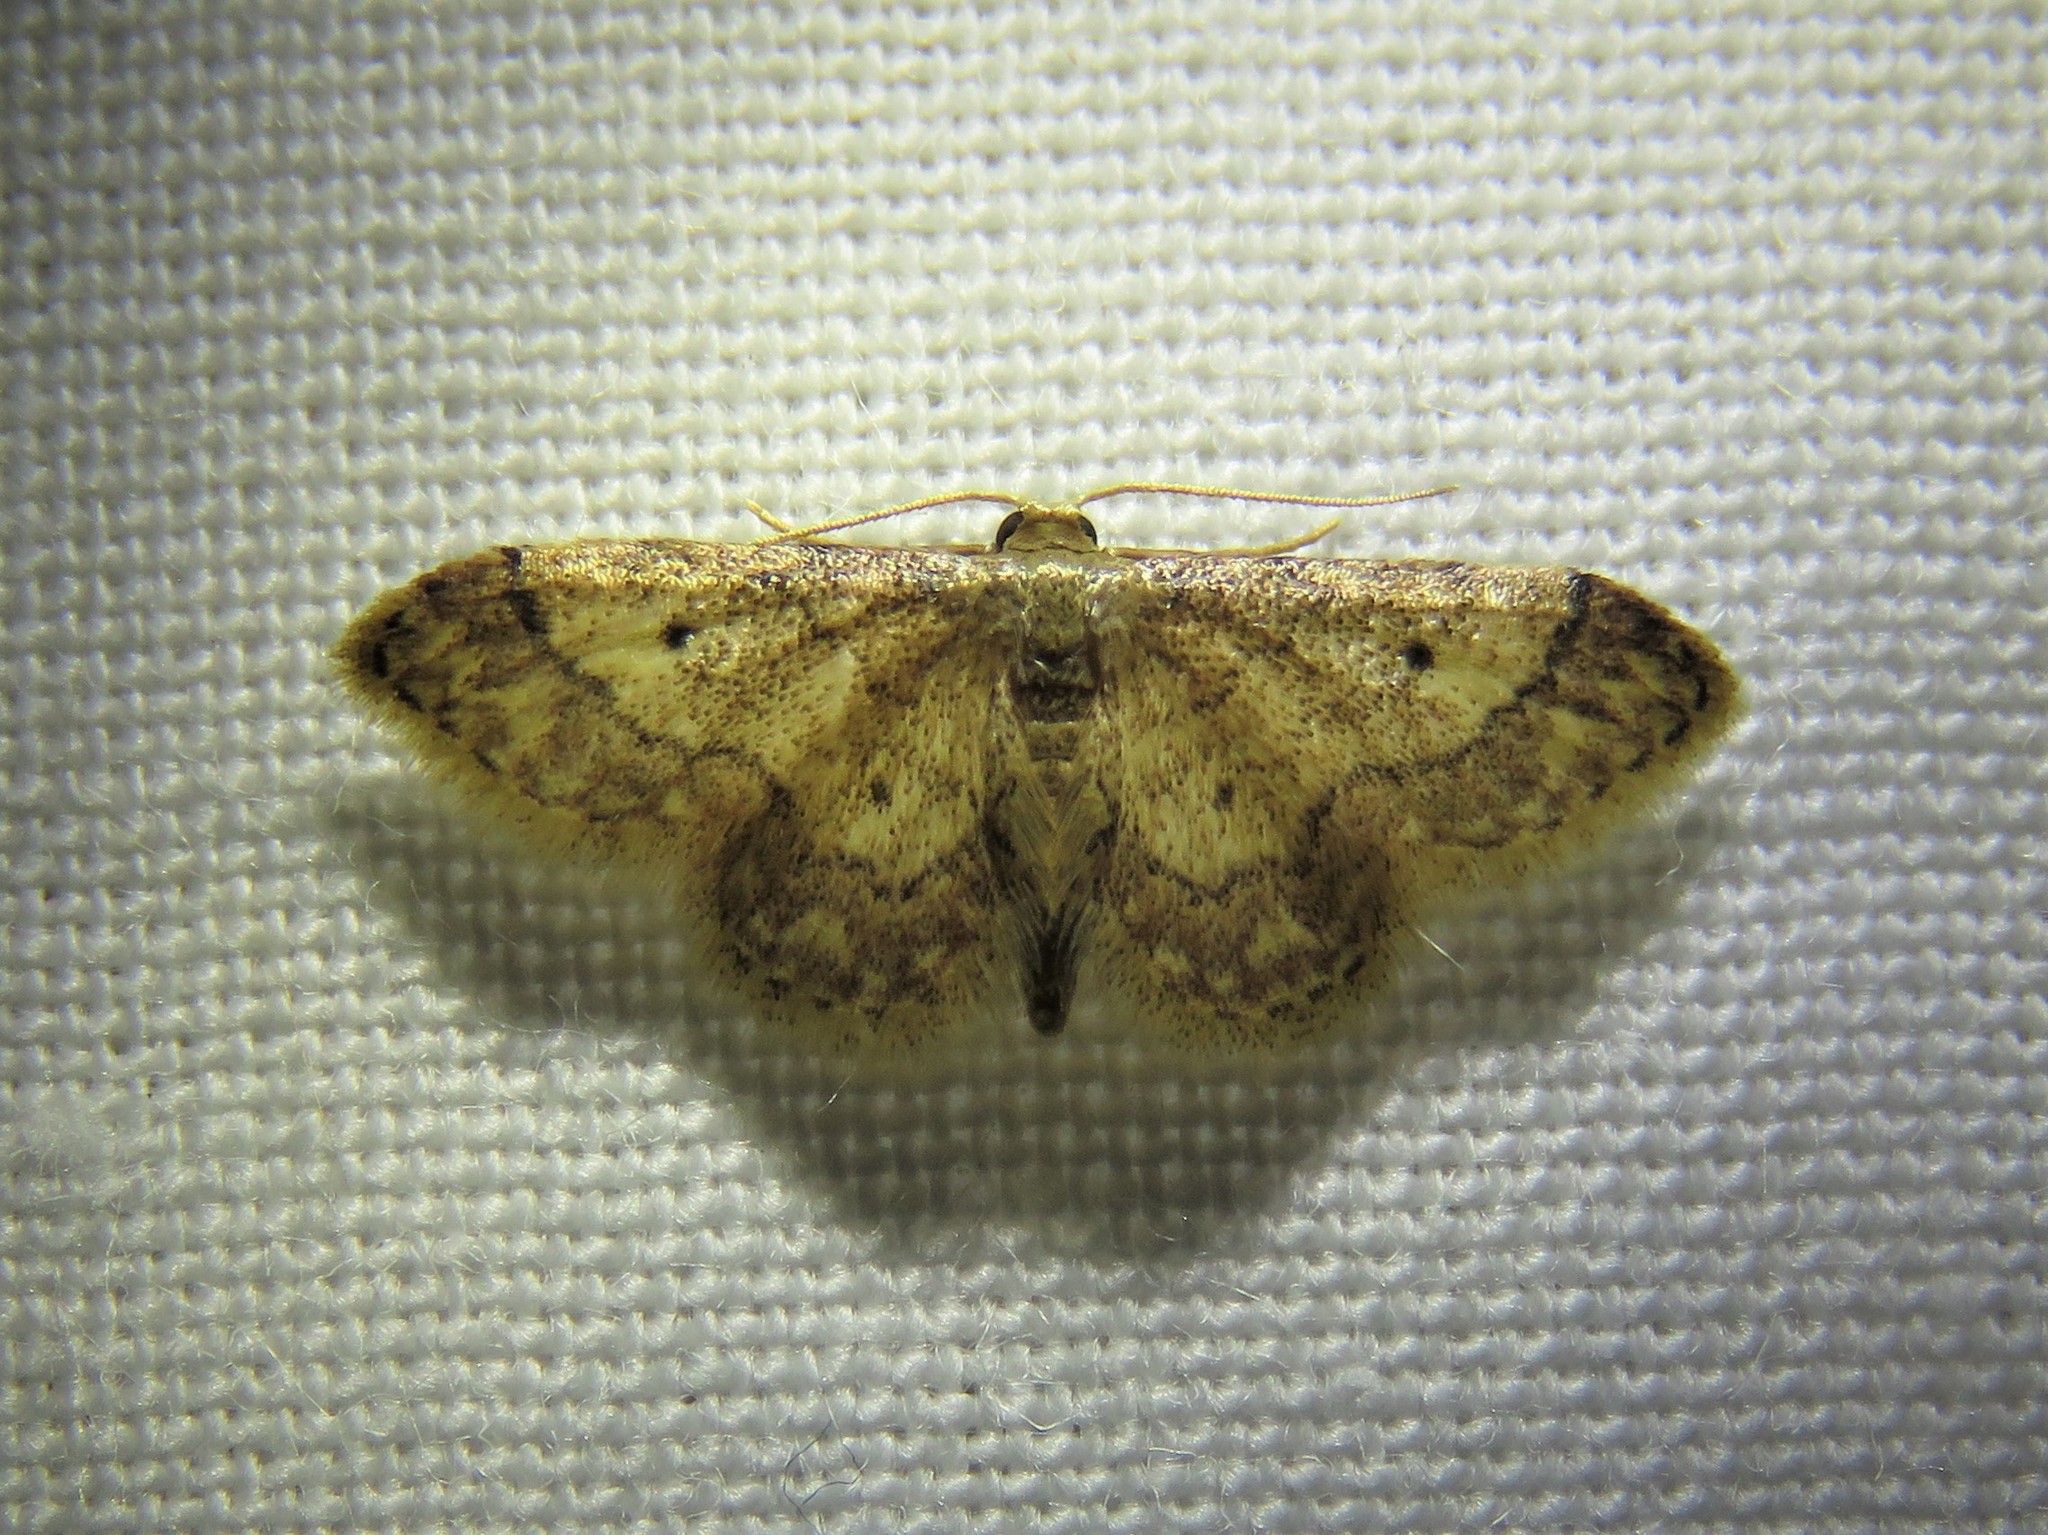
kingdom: Animalia
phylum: Arthropoda
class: Insecta
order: Lepidoptera
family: Geometridae
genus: Idaea
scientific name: Idaea celtima
